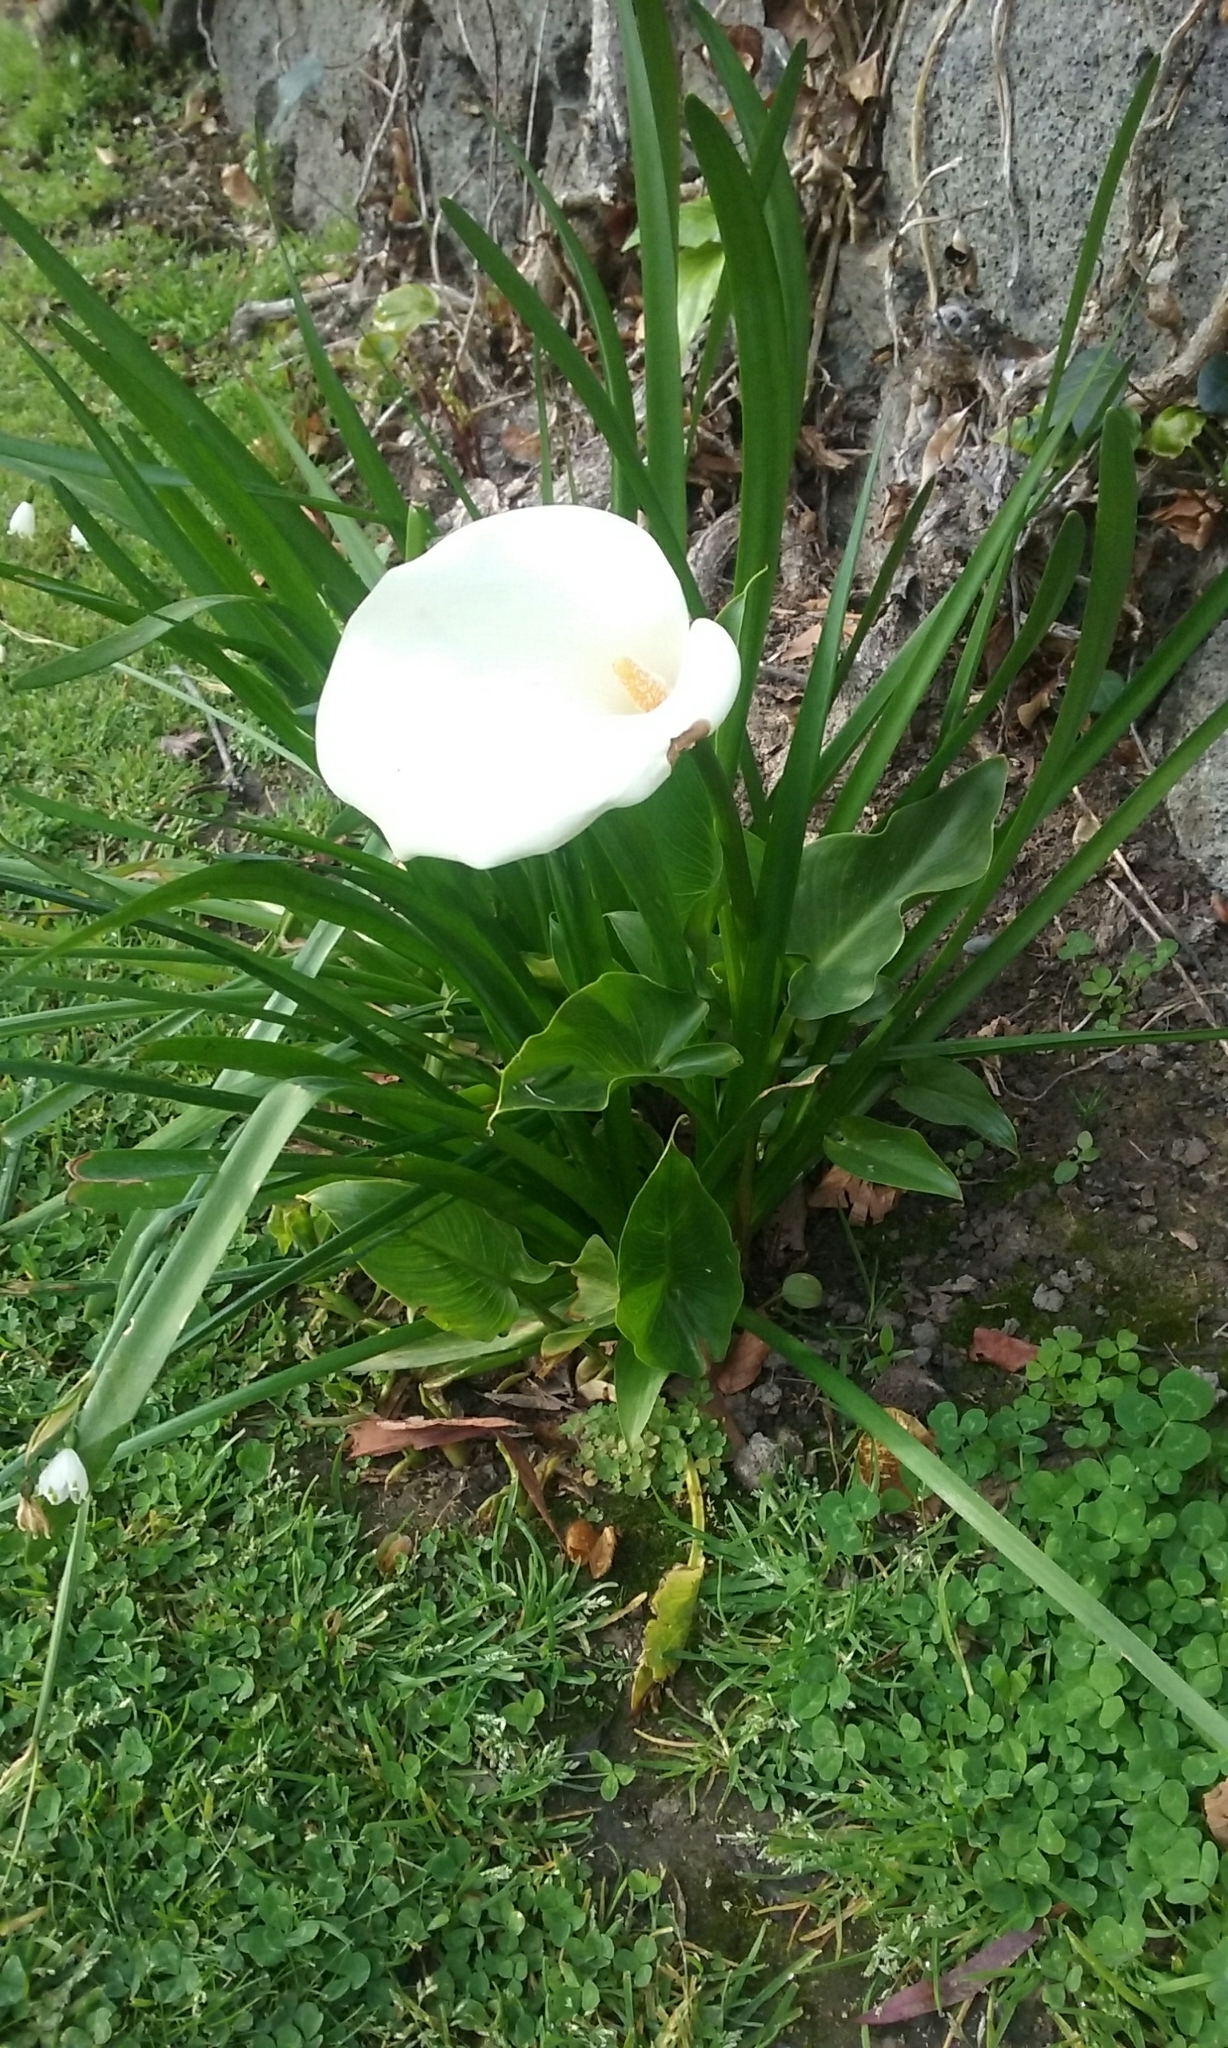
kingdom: Plantae
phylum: Tracheophyta
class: Liliopsida
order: Alismatales
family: Araceae
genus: Zantedeschia
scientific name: Zantedeschia aethiopica
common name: Altar-lily
